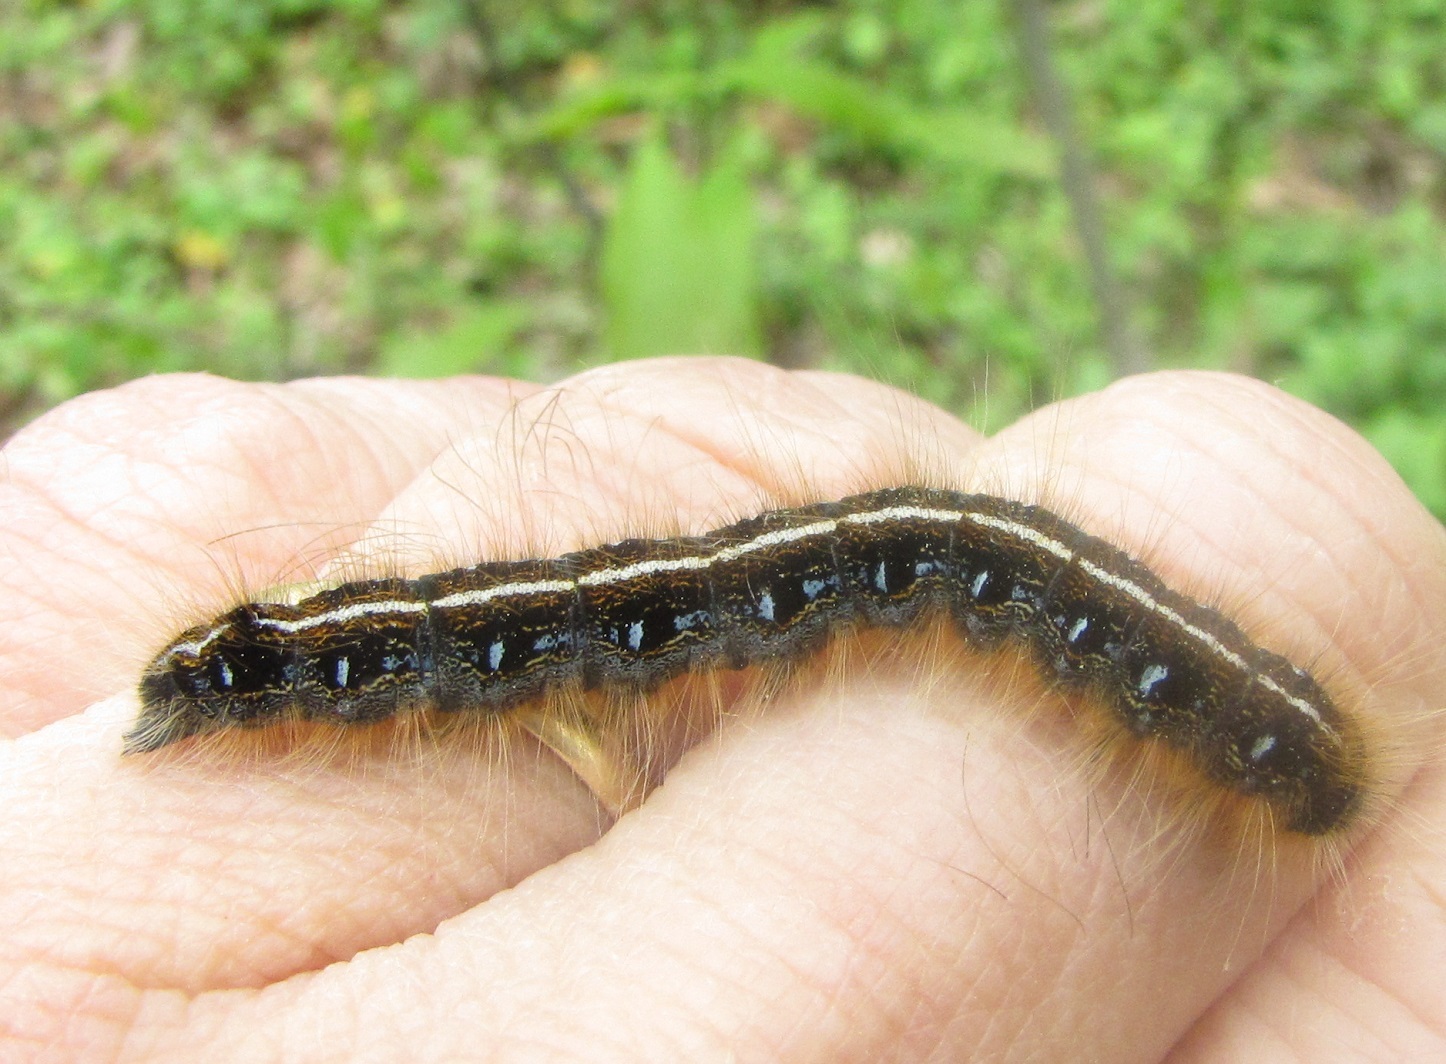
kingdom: Animalia
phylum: Arthropoda
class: Insecta
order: Lepidoptera
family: Lasiocampidae
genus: Malacosoma
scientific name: Malacosoma americana
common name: Eastern tent caterpillar moth
